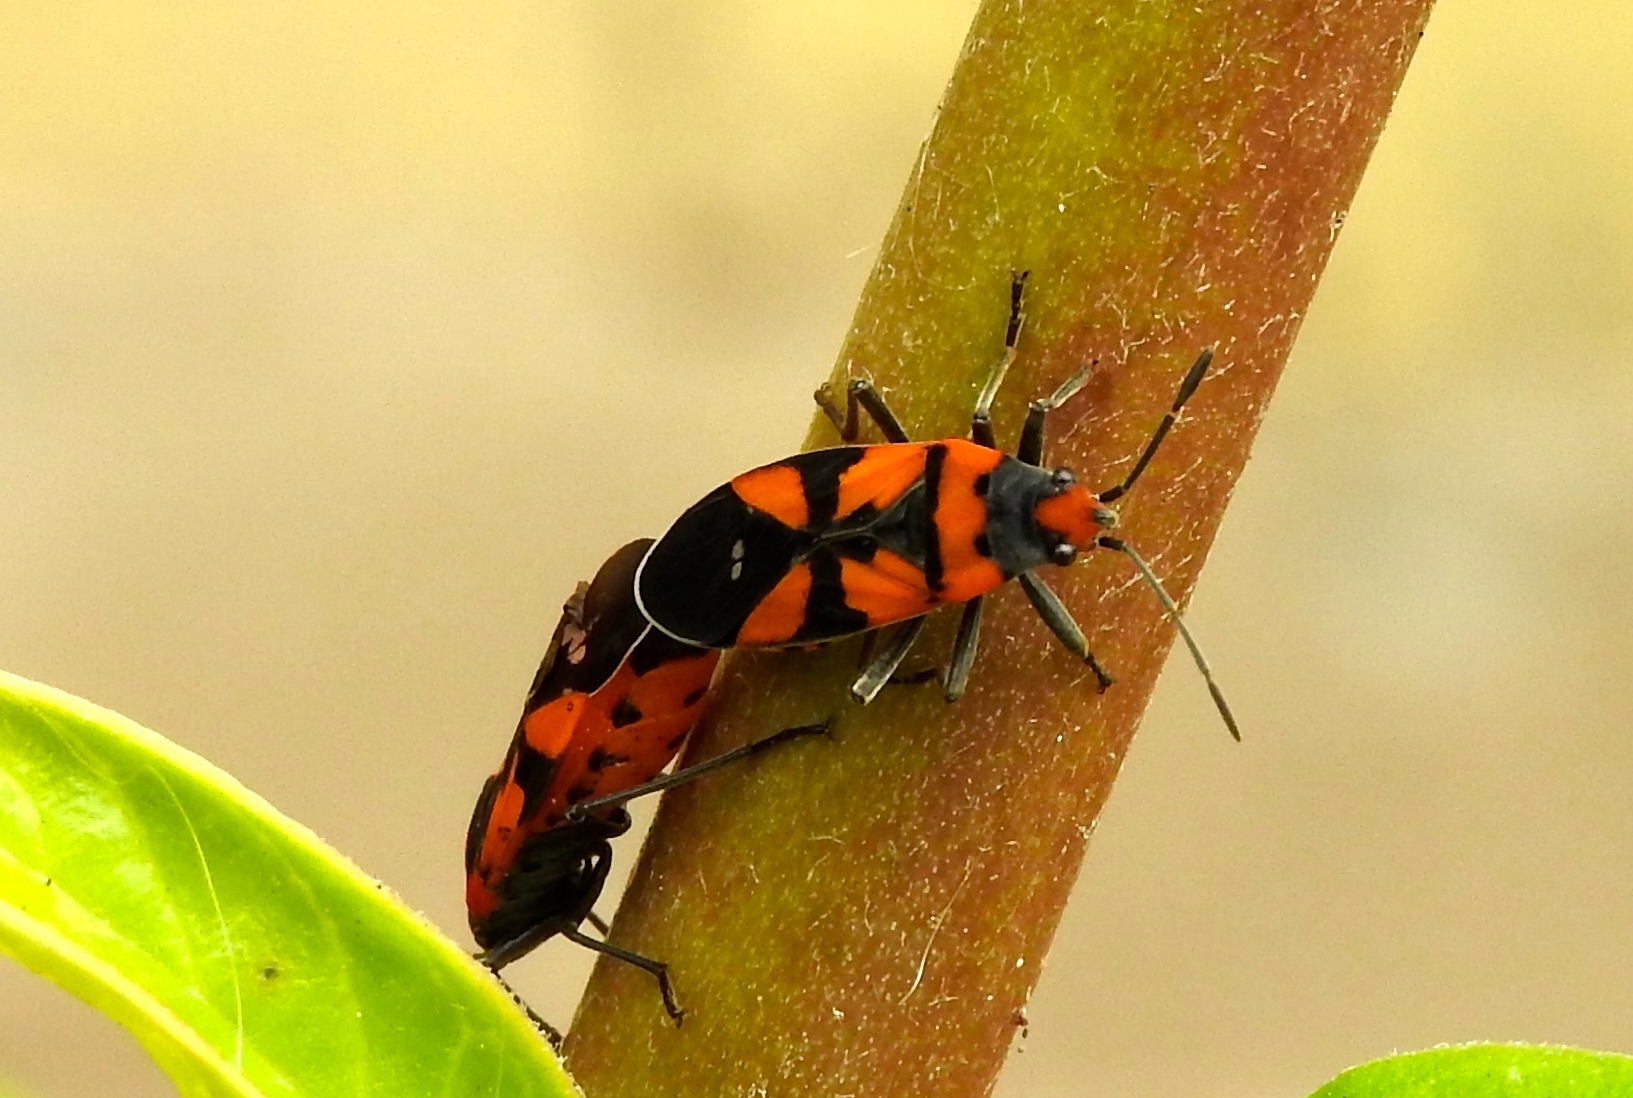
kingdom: Animalia
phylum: Arthropoda
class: Insecta
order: Hemiptera
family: Lygaeidae
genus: Lygaeus
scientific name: Lygaeus analis
